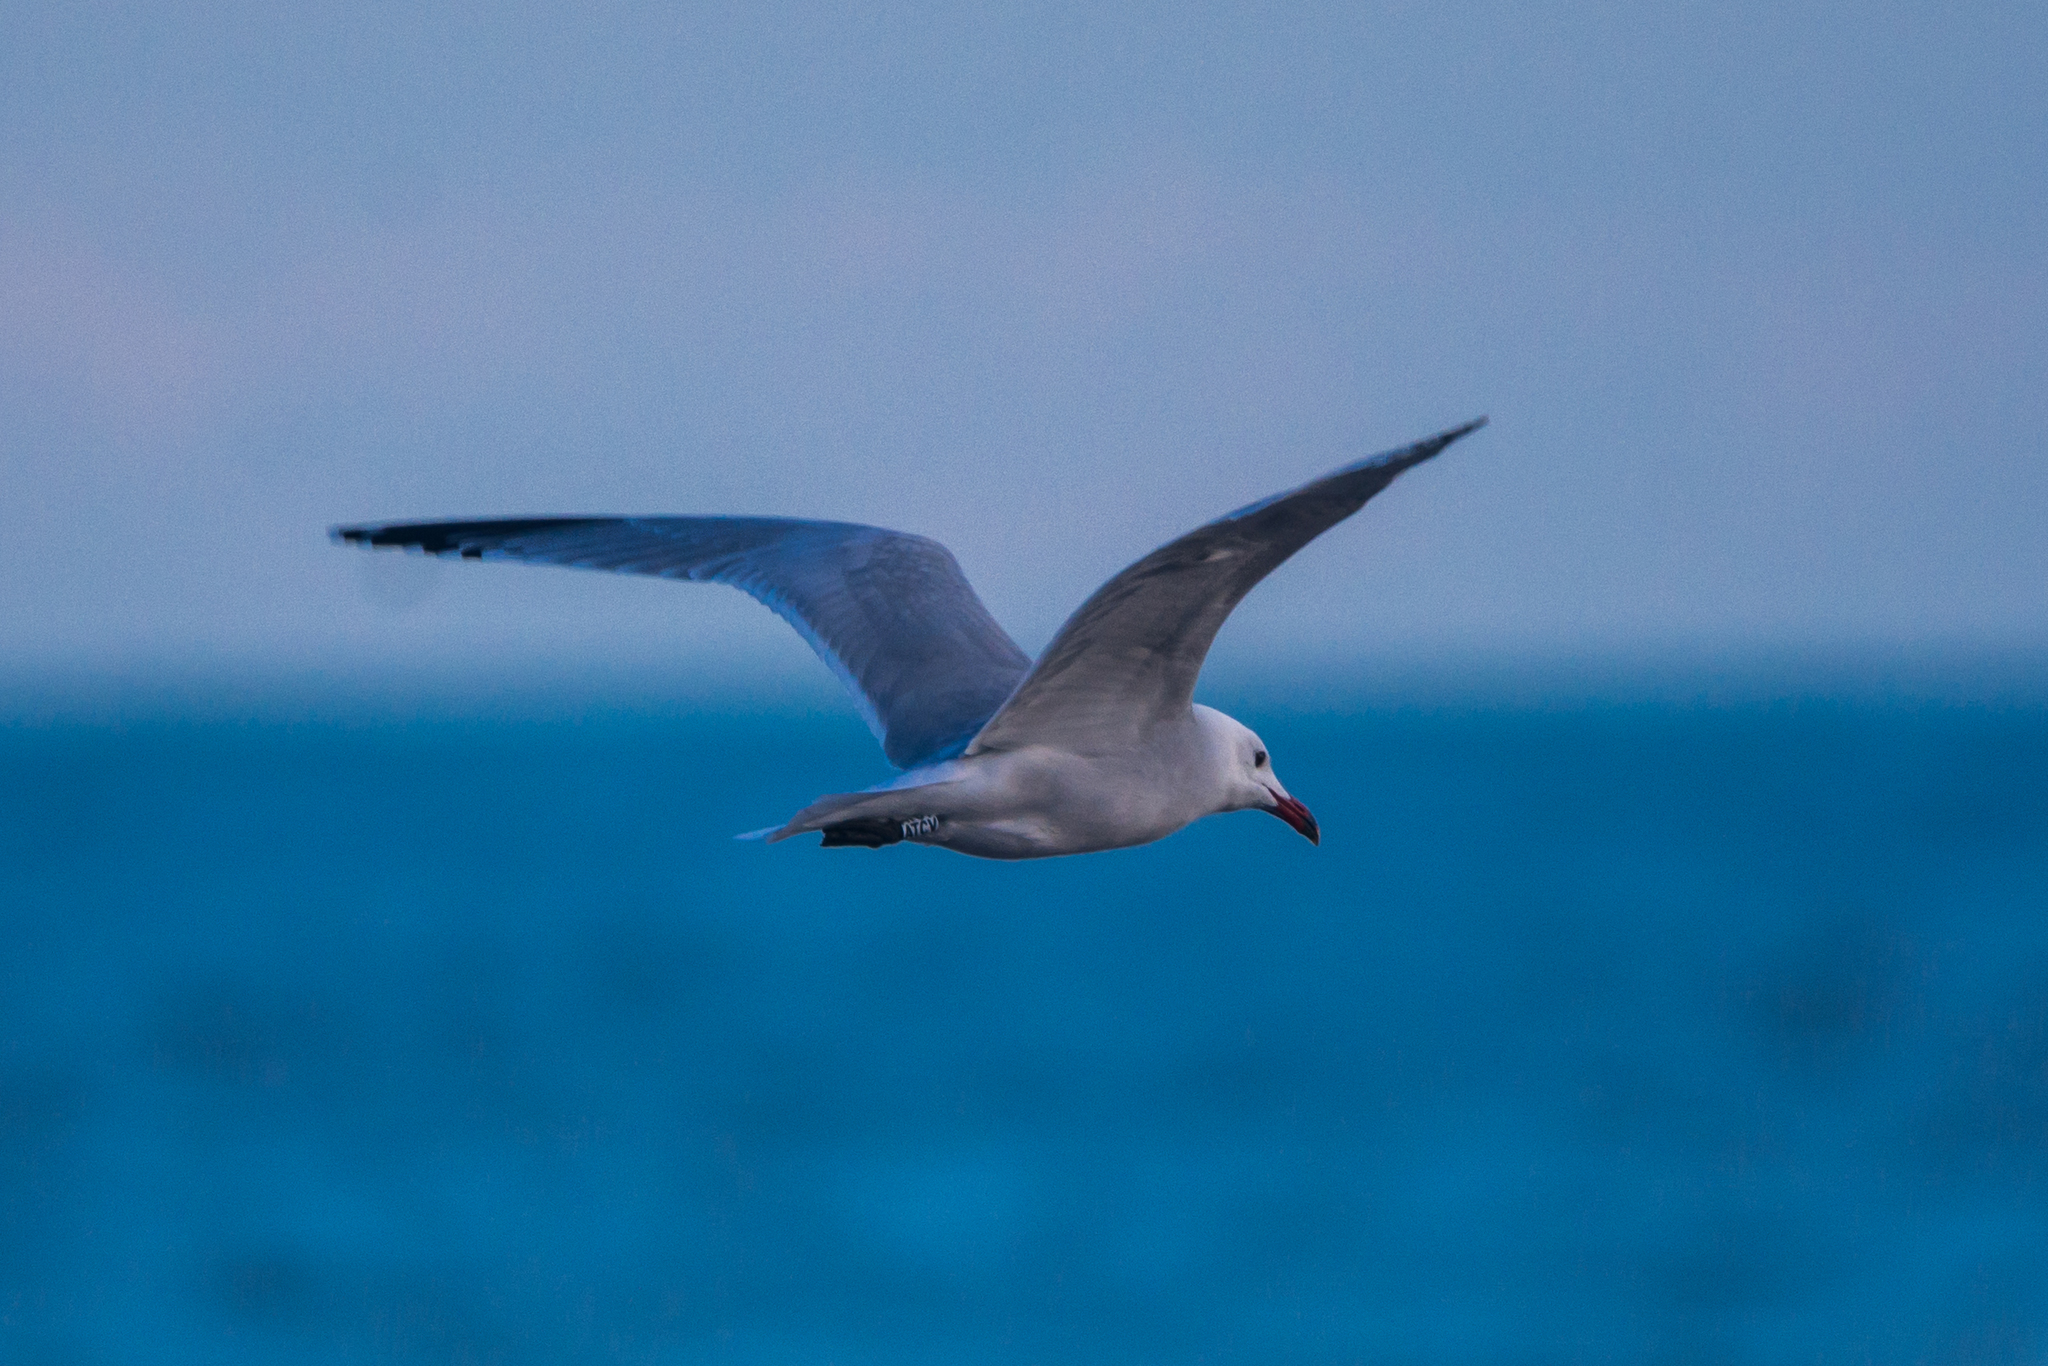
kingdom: Animalia
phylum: Chordata
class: Aves
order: Charadriiformes
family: Laridae
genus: Ichthyaetus
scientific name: Ichthyaetus audouinii
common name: Audouin's gull
